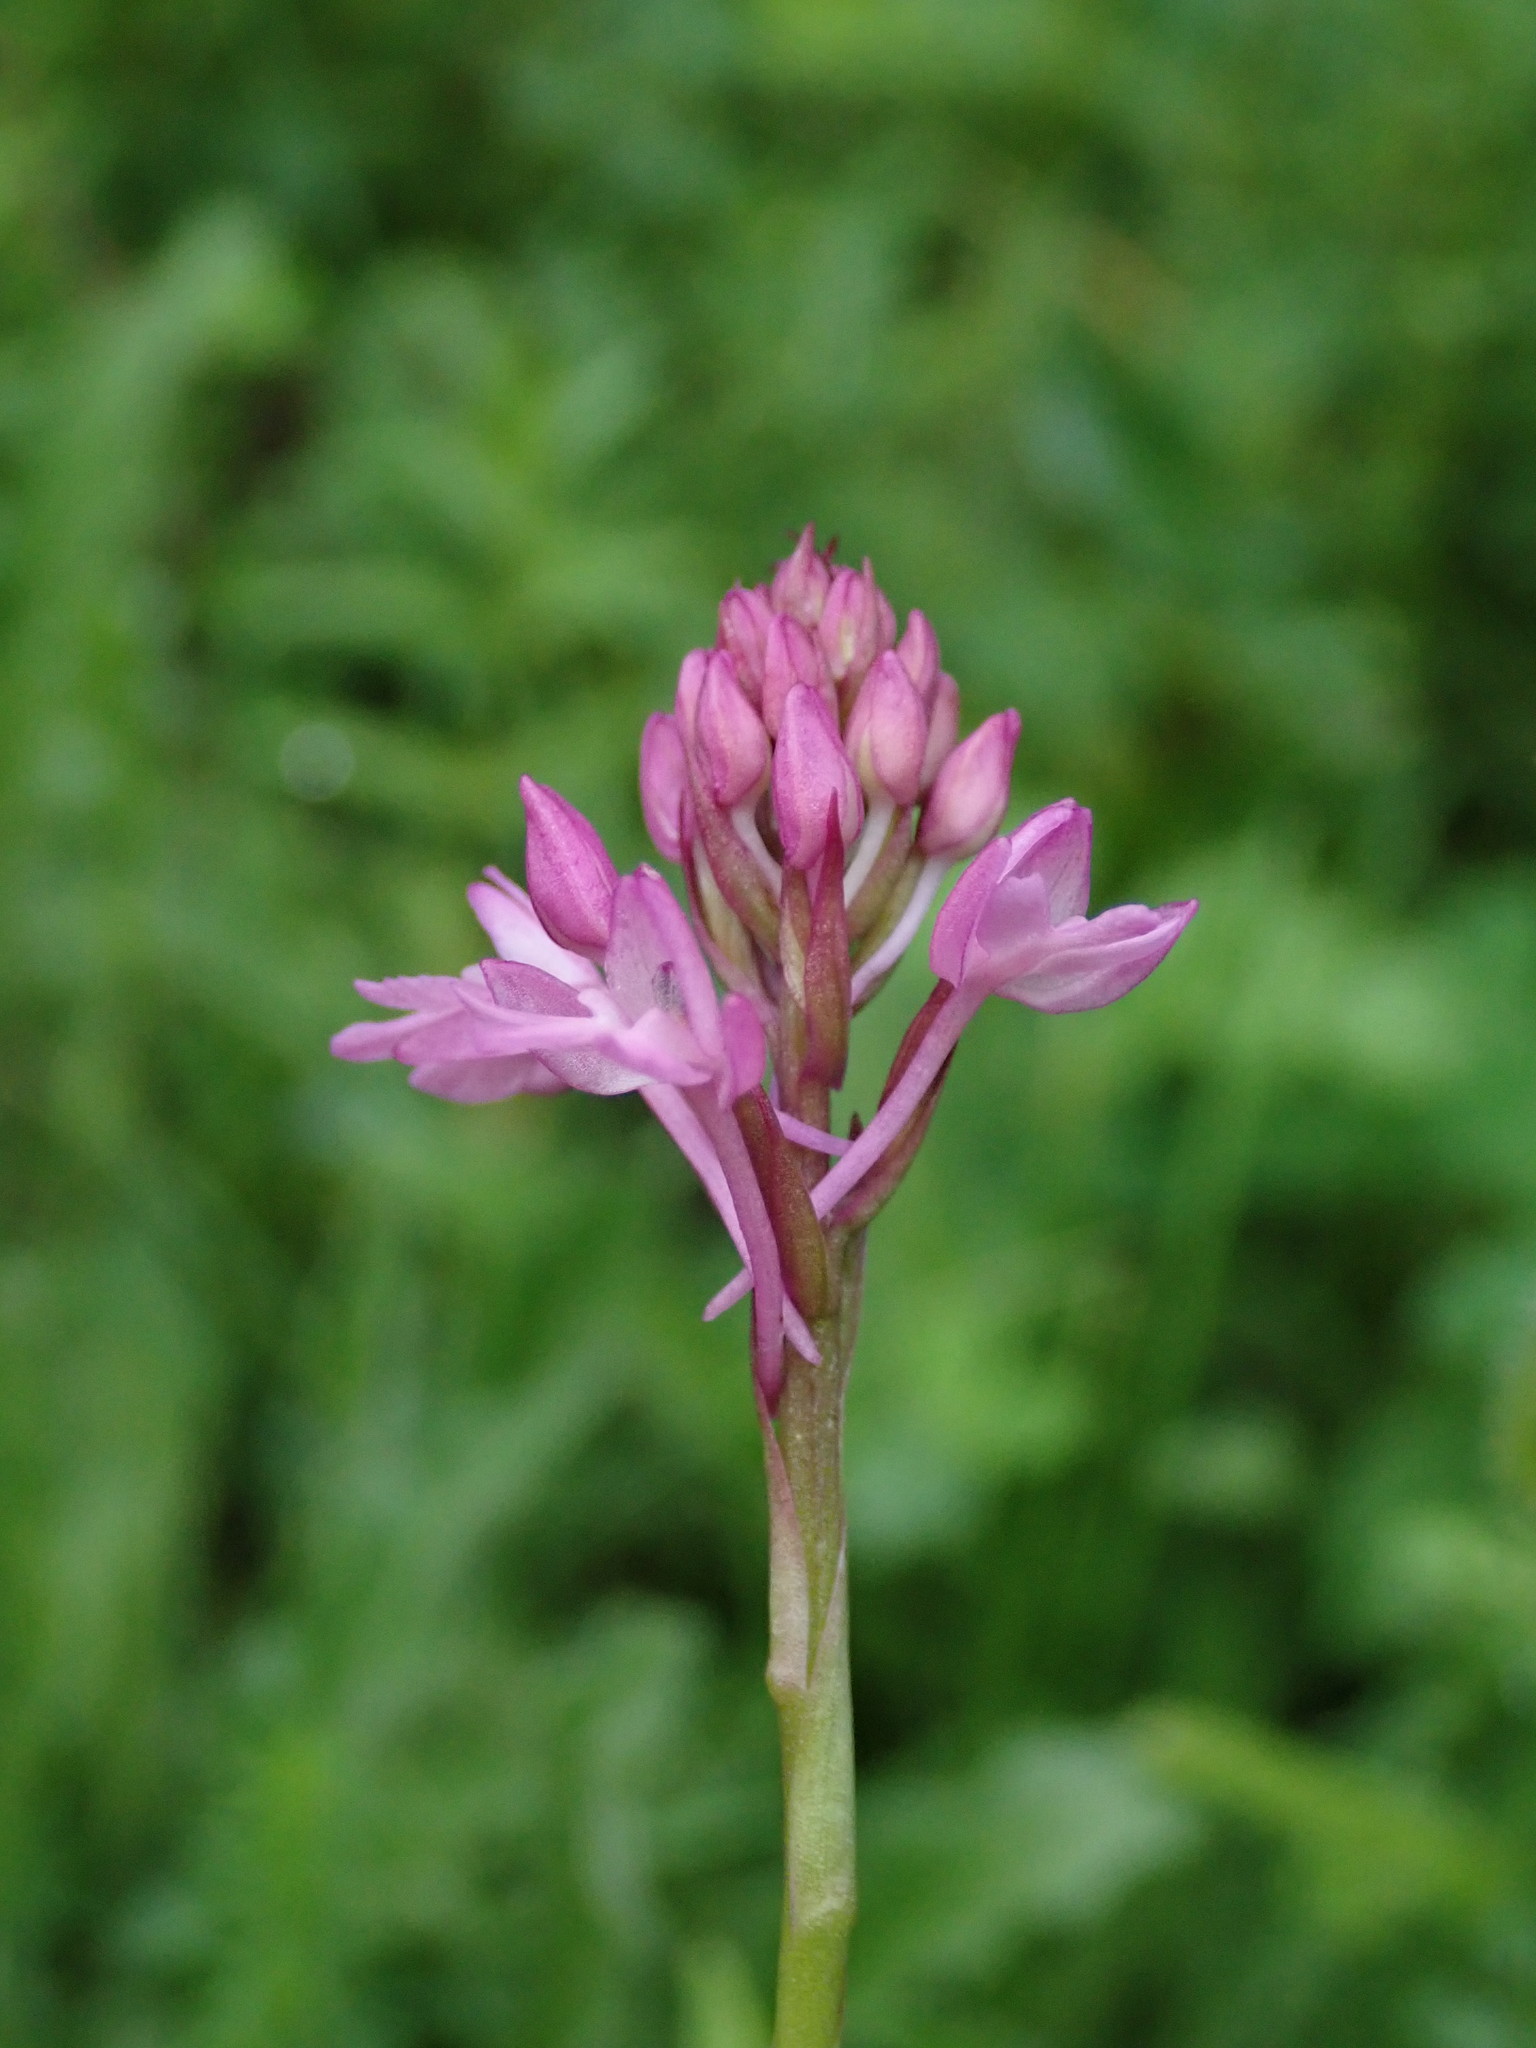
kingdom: Plantae
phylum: Tracheophyta
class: Liliopsida
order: Asparagales
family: Orchidaceae
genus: Anacamptis
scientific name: Anacamptis pyramidalis
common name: Pyramidal orchid
